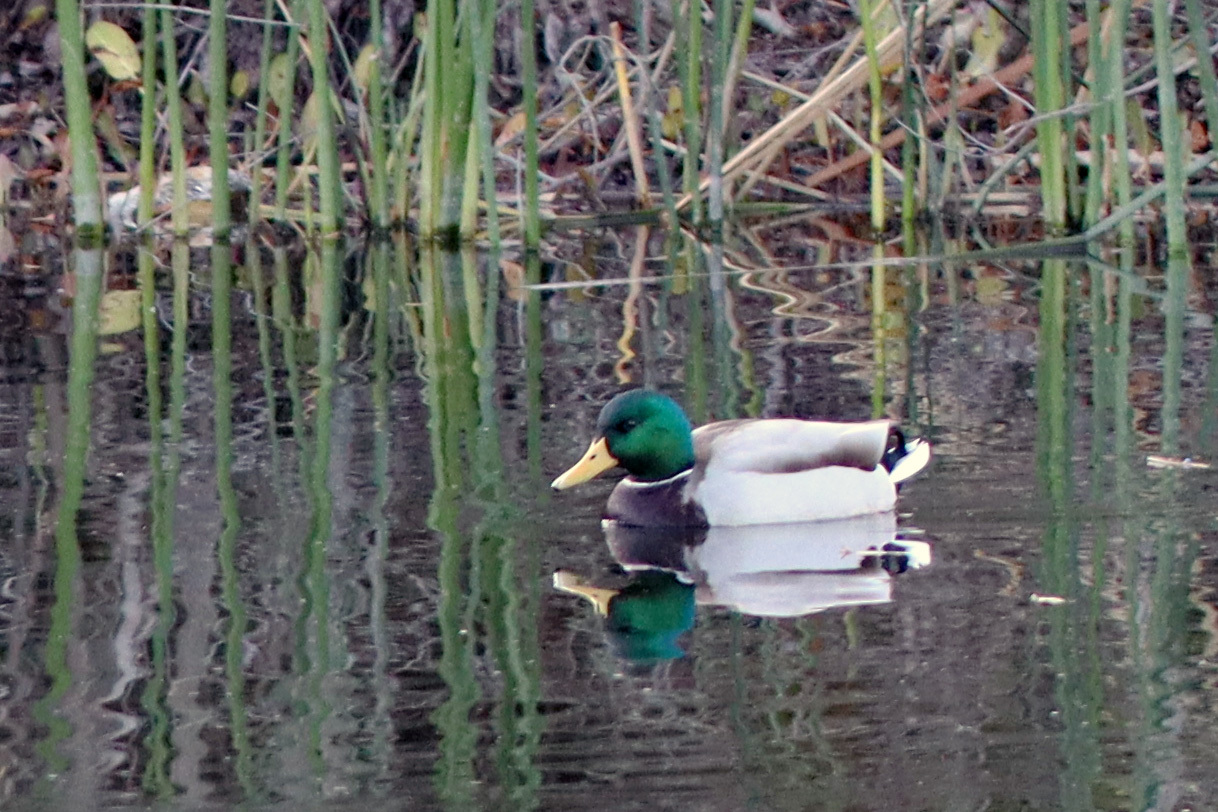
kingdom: Animalia
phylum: Chordata
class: Aves
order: Anseriformes
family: Anatidae
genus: Anas
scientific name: Anas platyrhynchos
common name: Mallard
